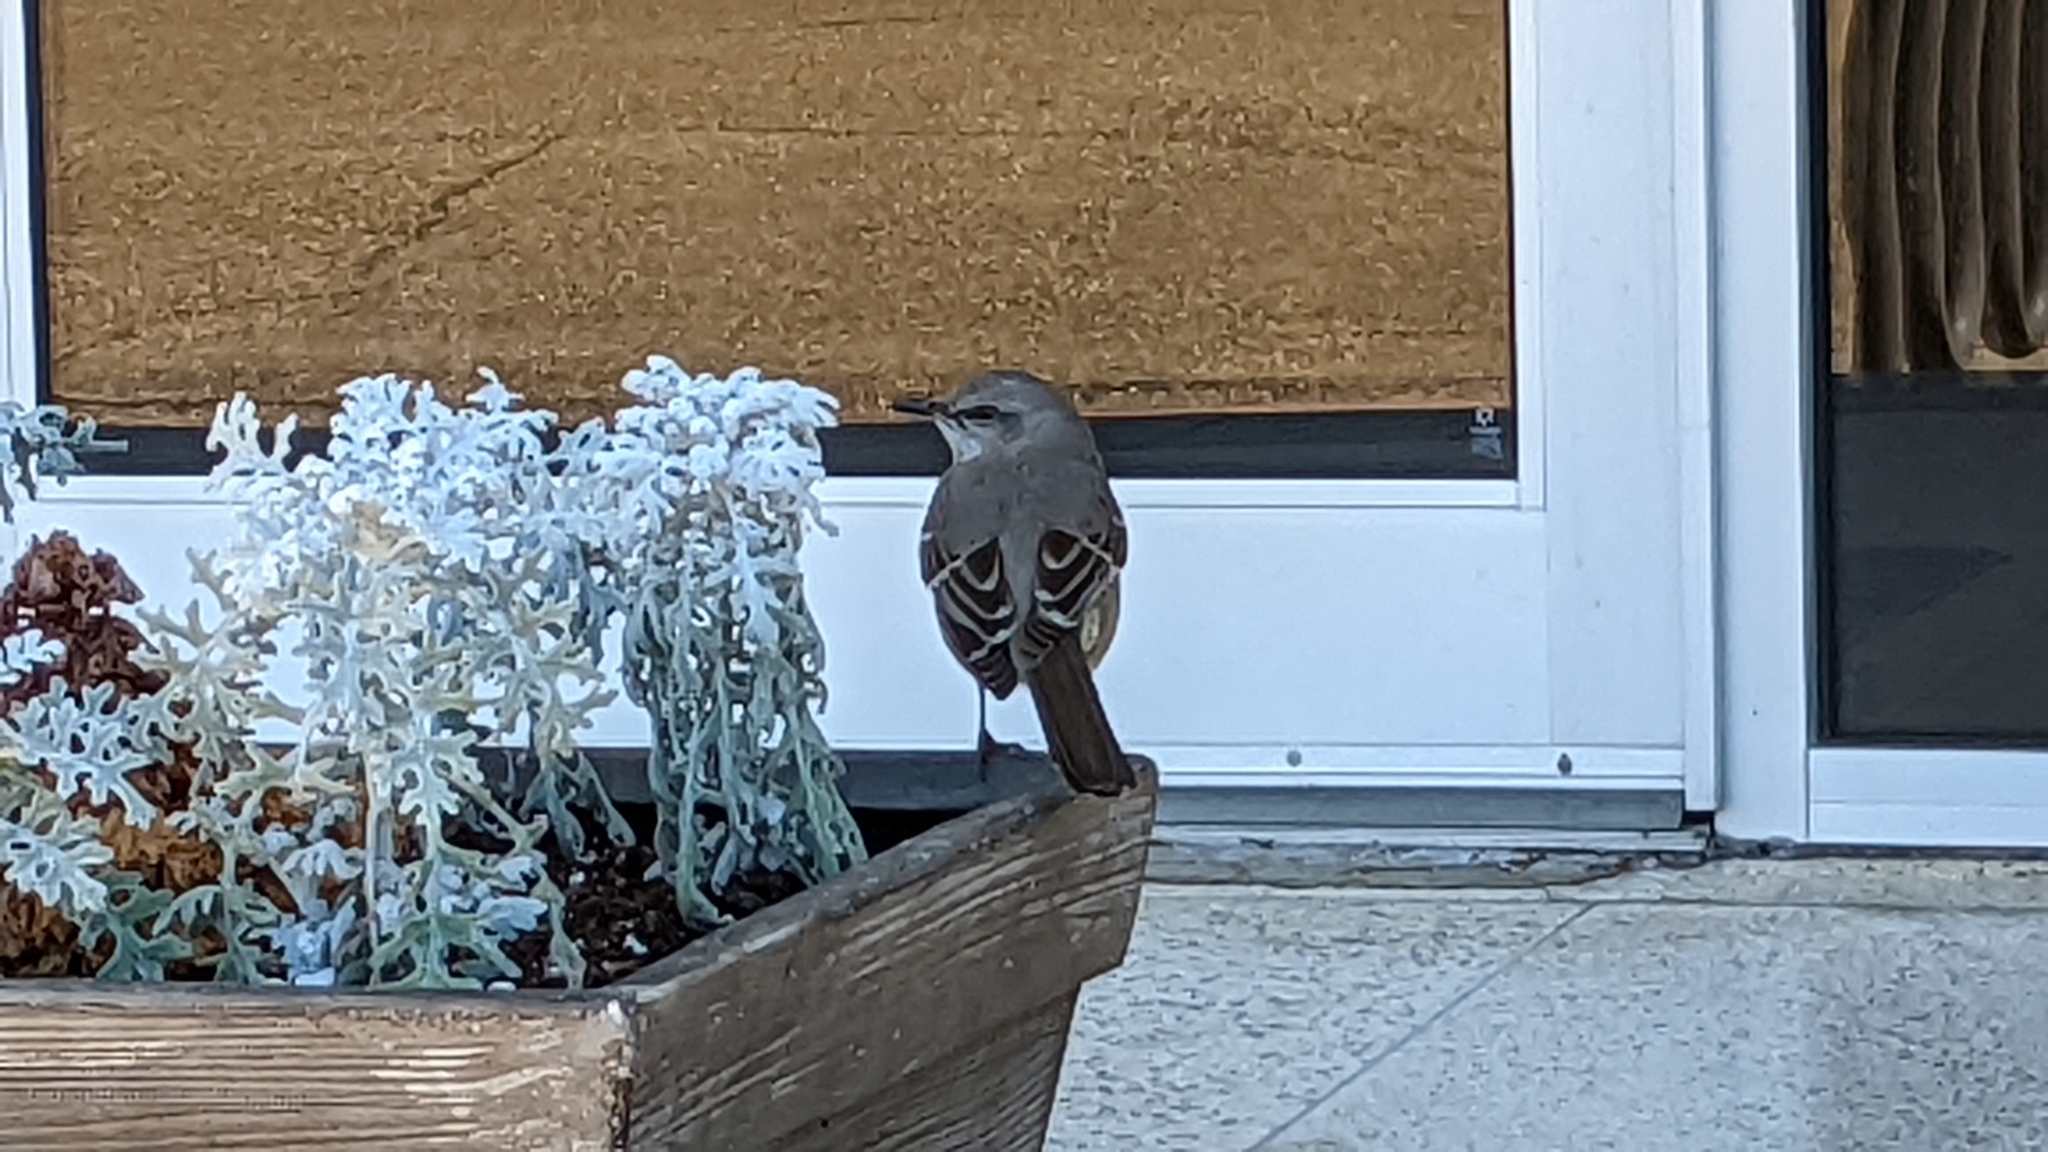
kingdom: Animalia
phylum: Chordata
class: Aves
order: Passeriformes
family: Mimidae
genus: Mimus
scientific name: Mimus polyglottos
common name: Northern mockingbird
